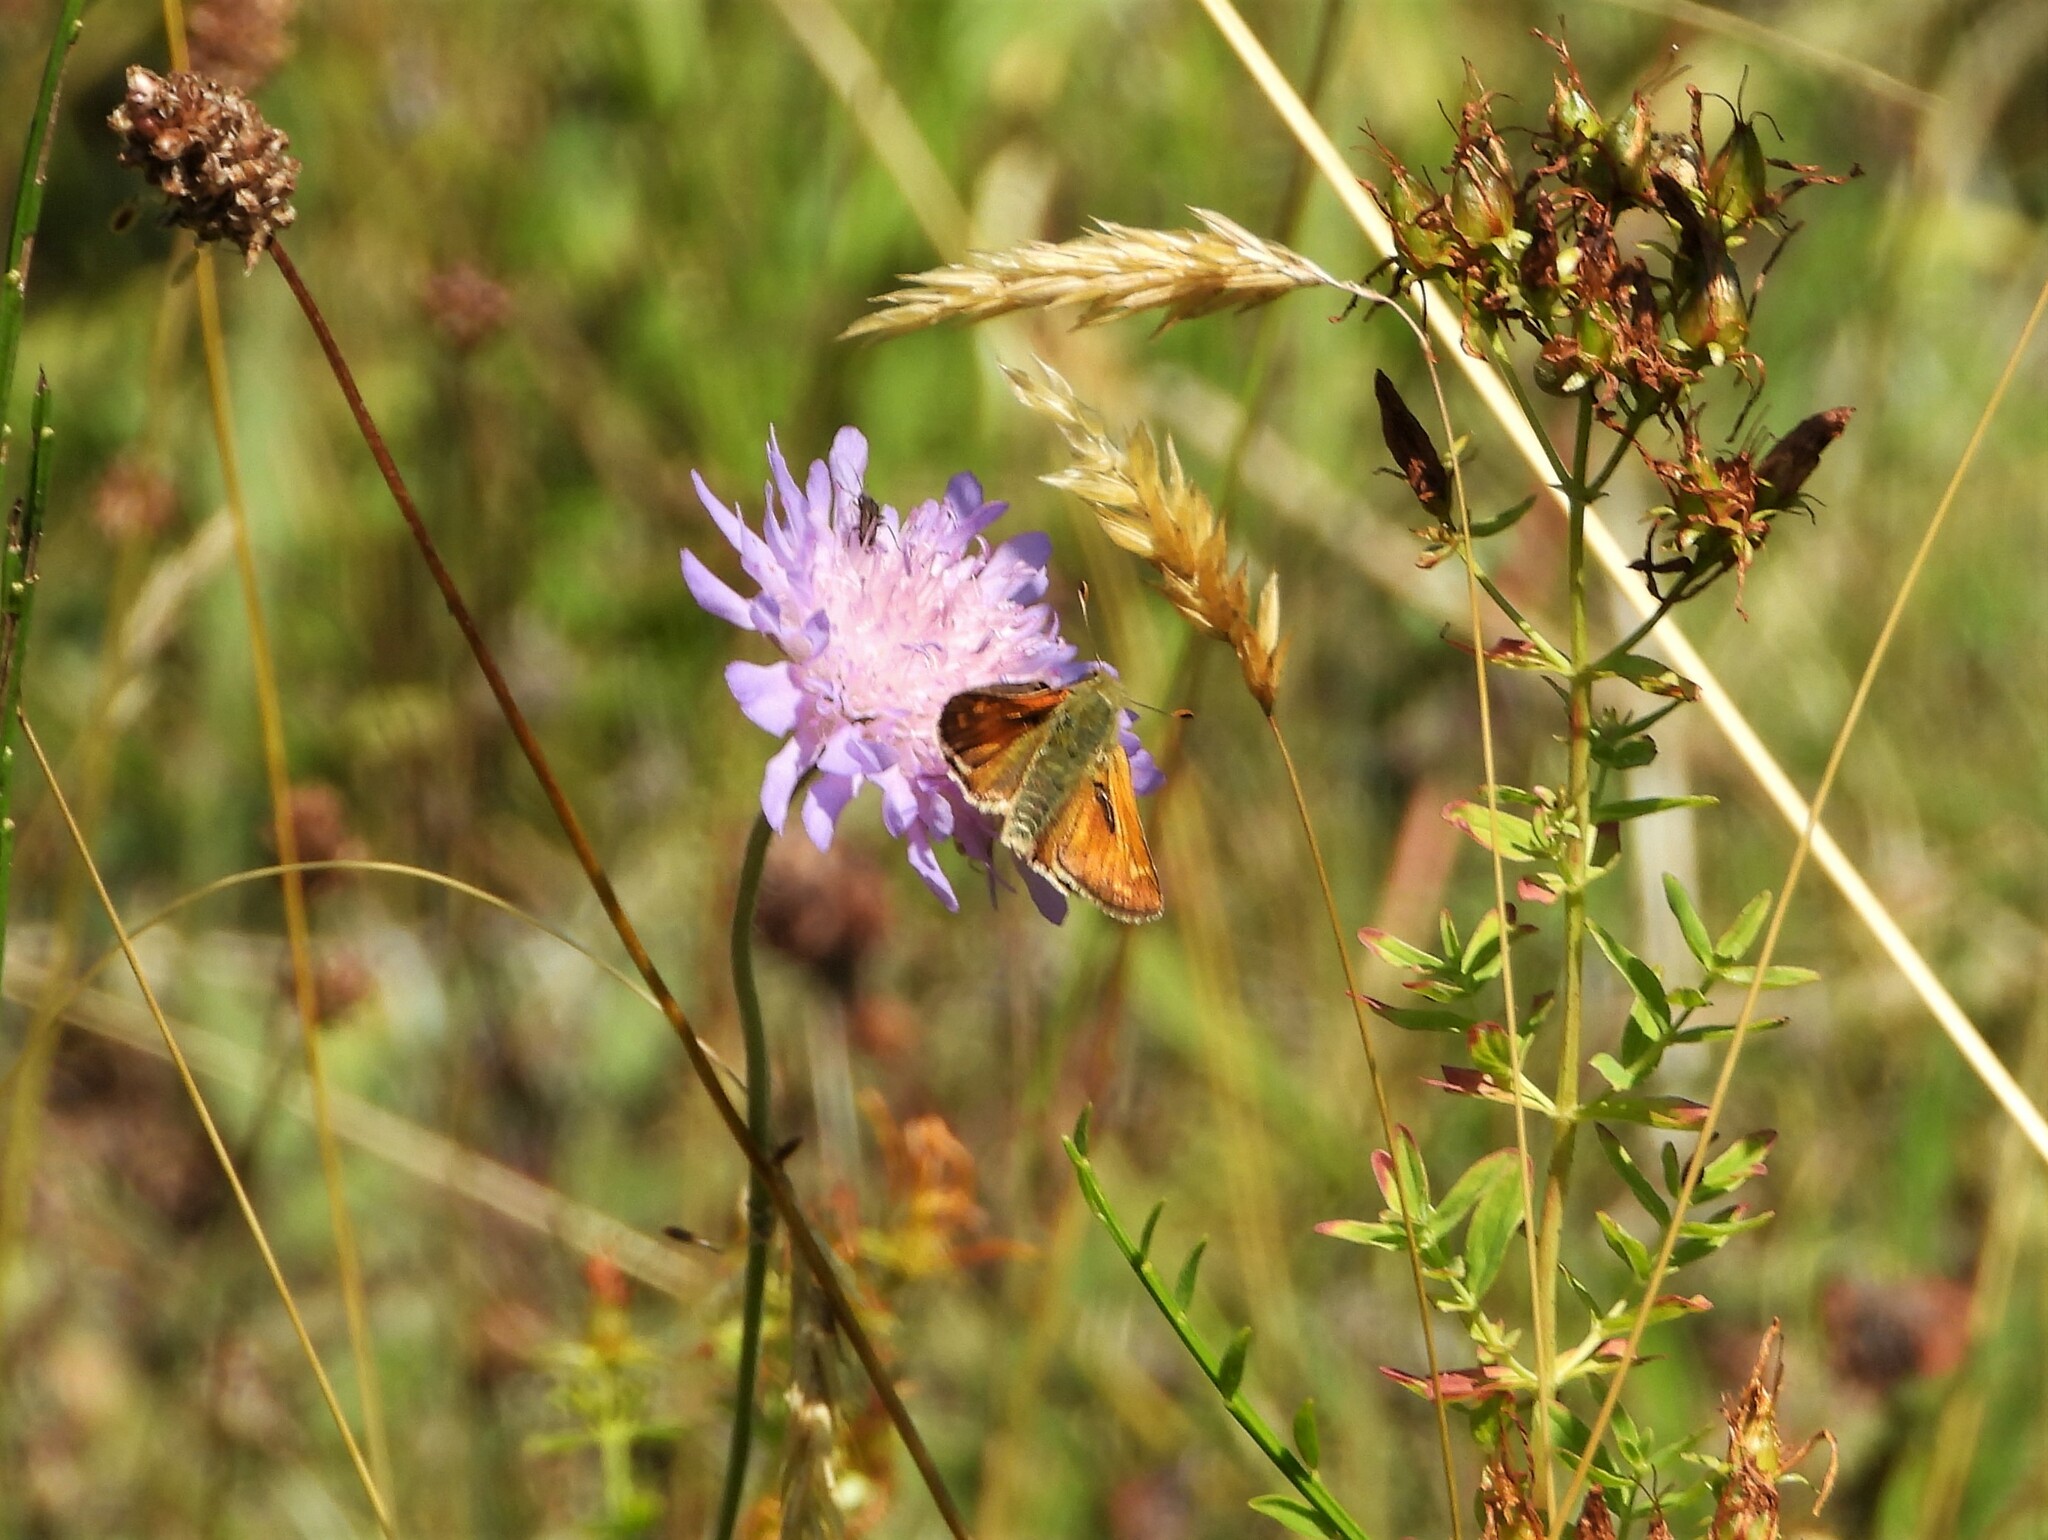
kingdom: Animalia
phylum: Arthropoda
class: Insecta
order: Lepidoptera
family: Hesperiidae
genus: Hesperia
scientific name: Hesperia comma
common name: Common branded skipper
